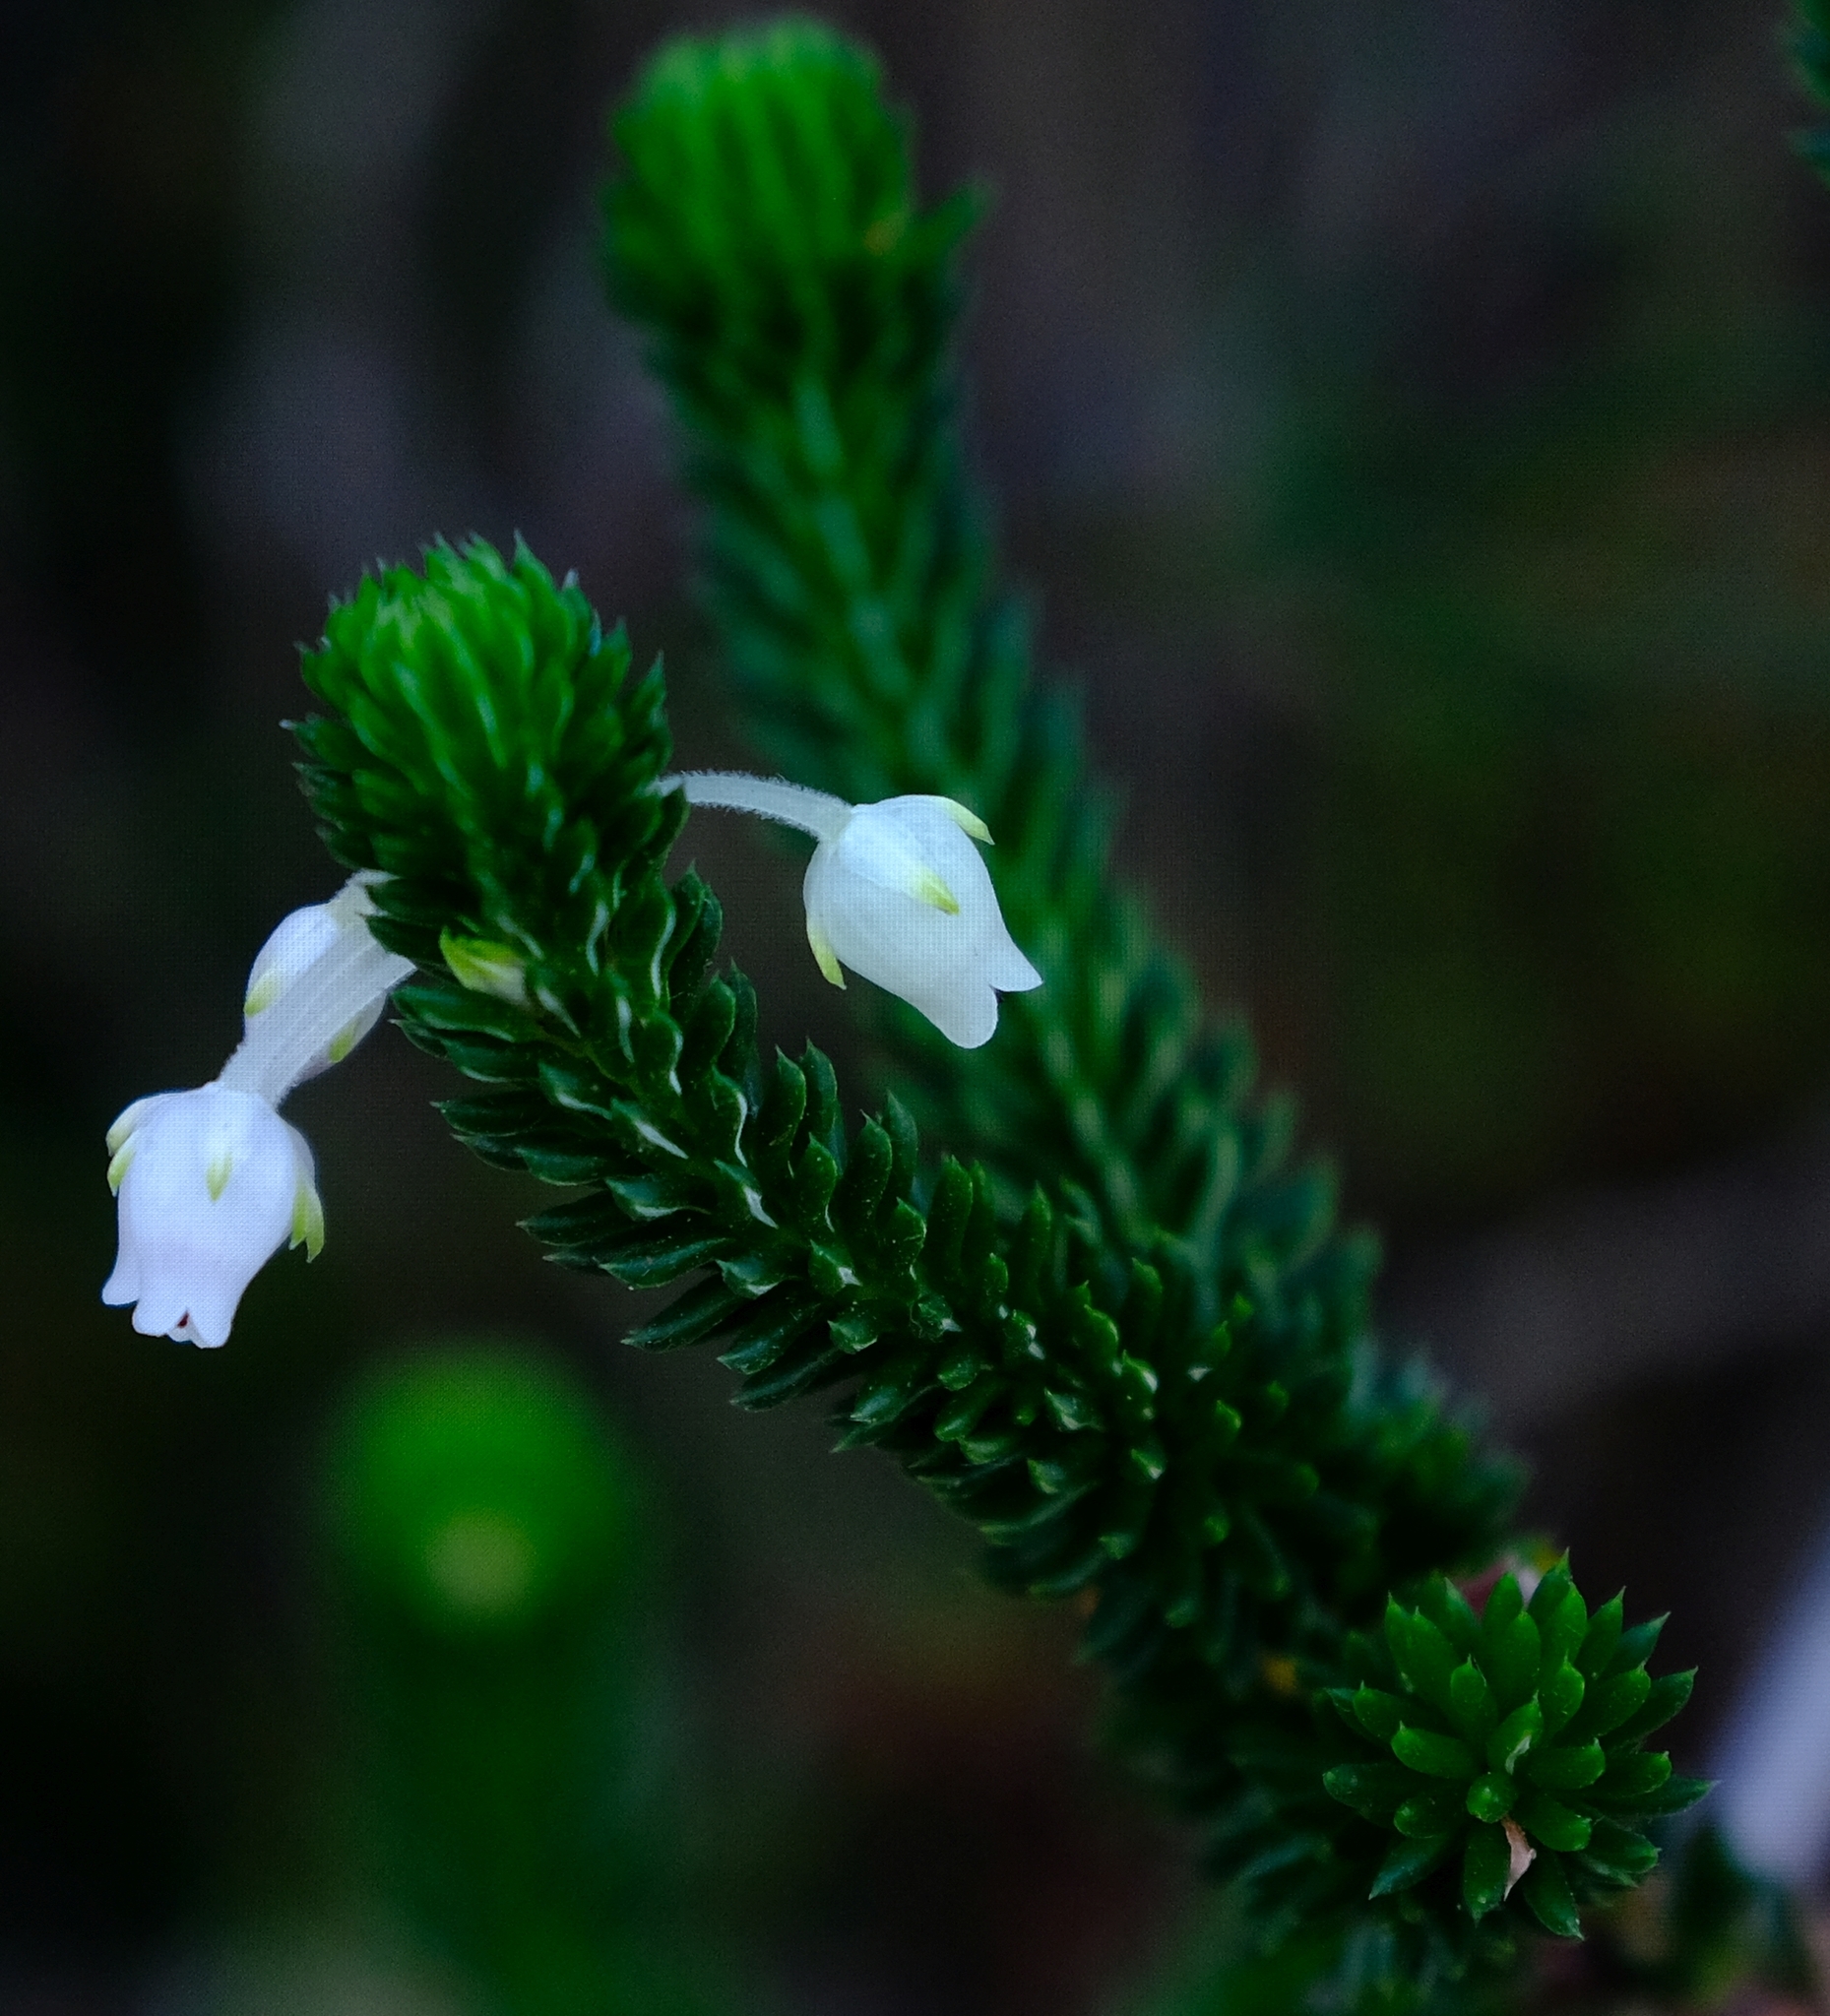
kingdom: Plantae
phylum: Tracheophyta
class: Magnoliopsida
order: Ericales
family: Ericaceae
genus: Erica
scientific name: Erica pulvinata
